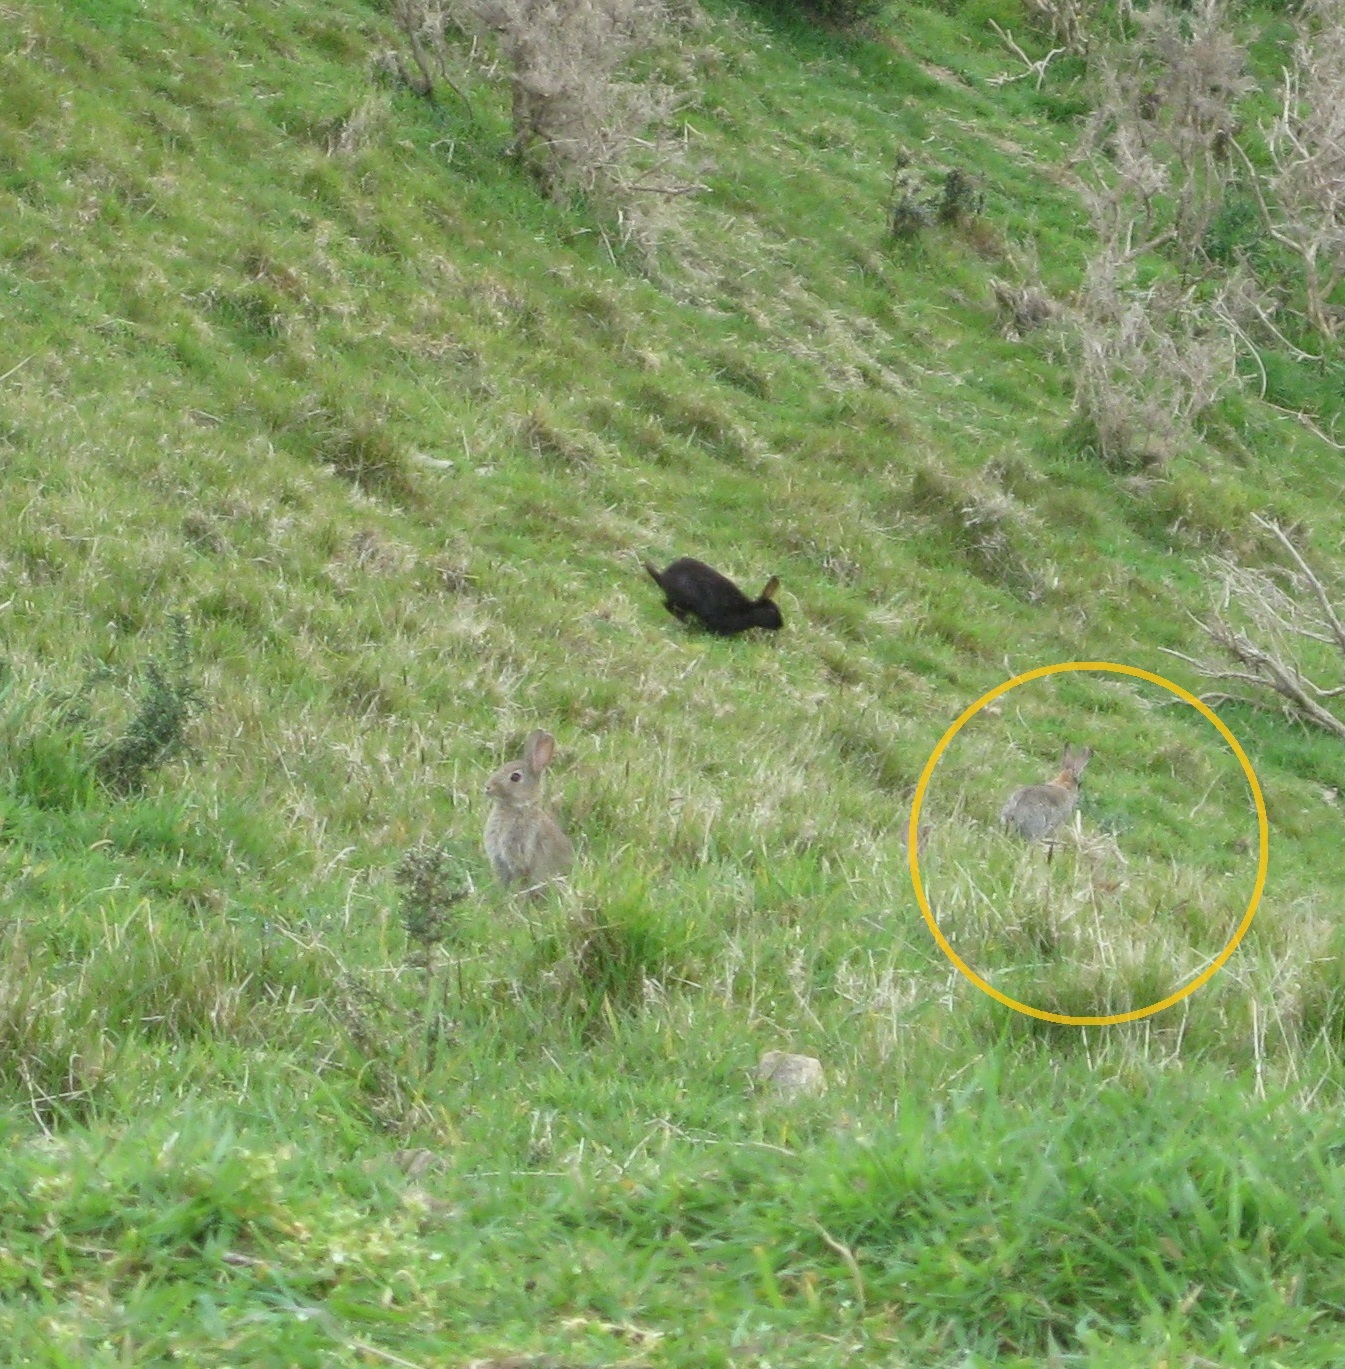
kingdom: Animalia
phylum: Chordata
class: Mammalia
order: Lagomorpha
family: Leporidae
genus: Lepus
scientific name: Lepus europaeus
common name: European hare
